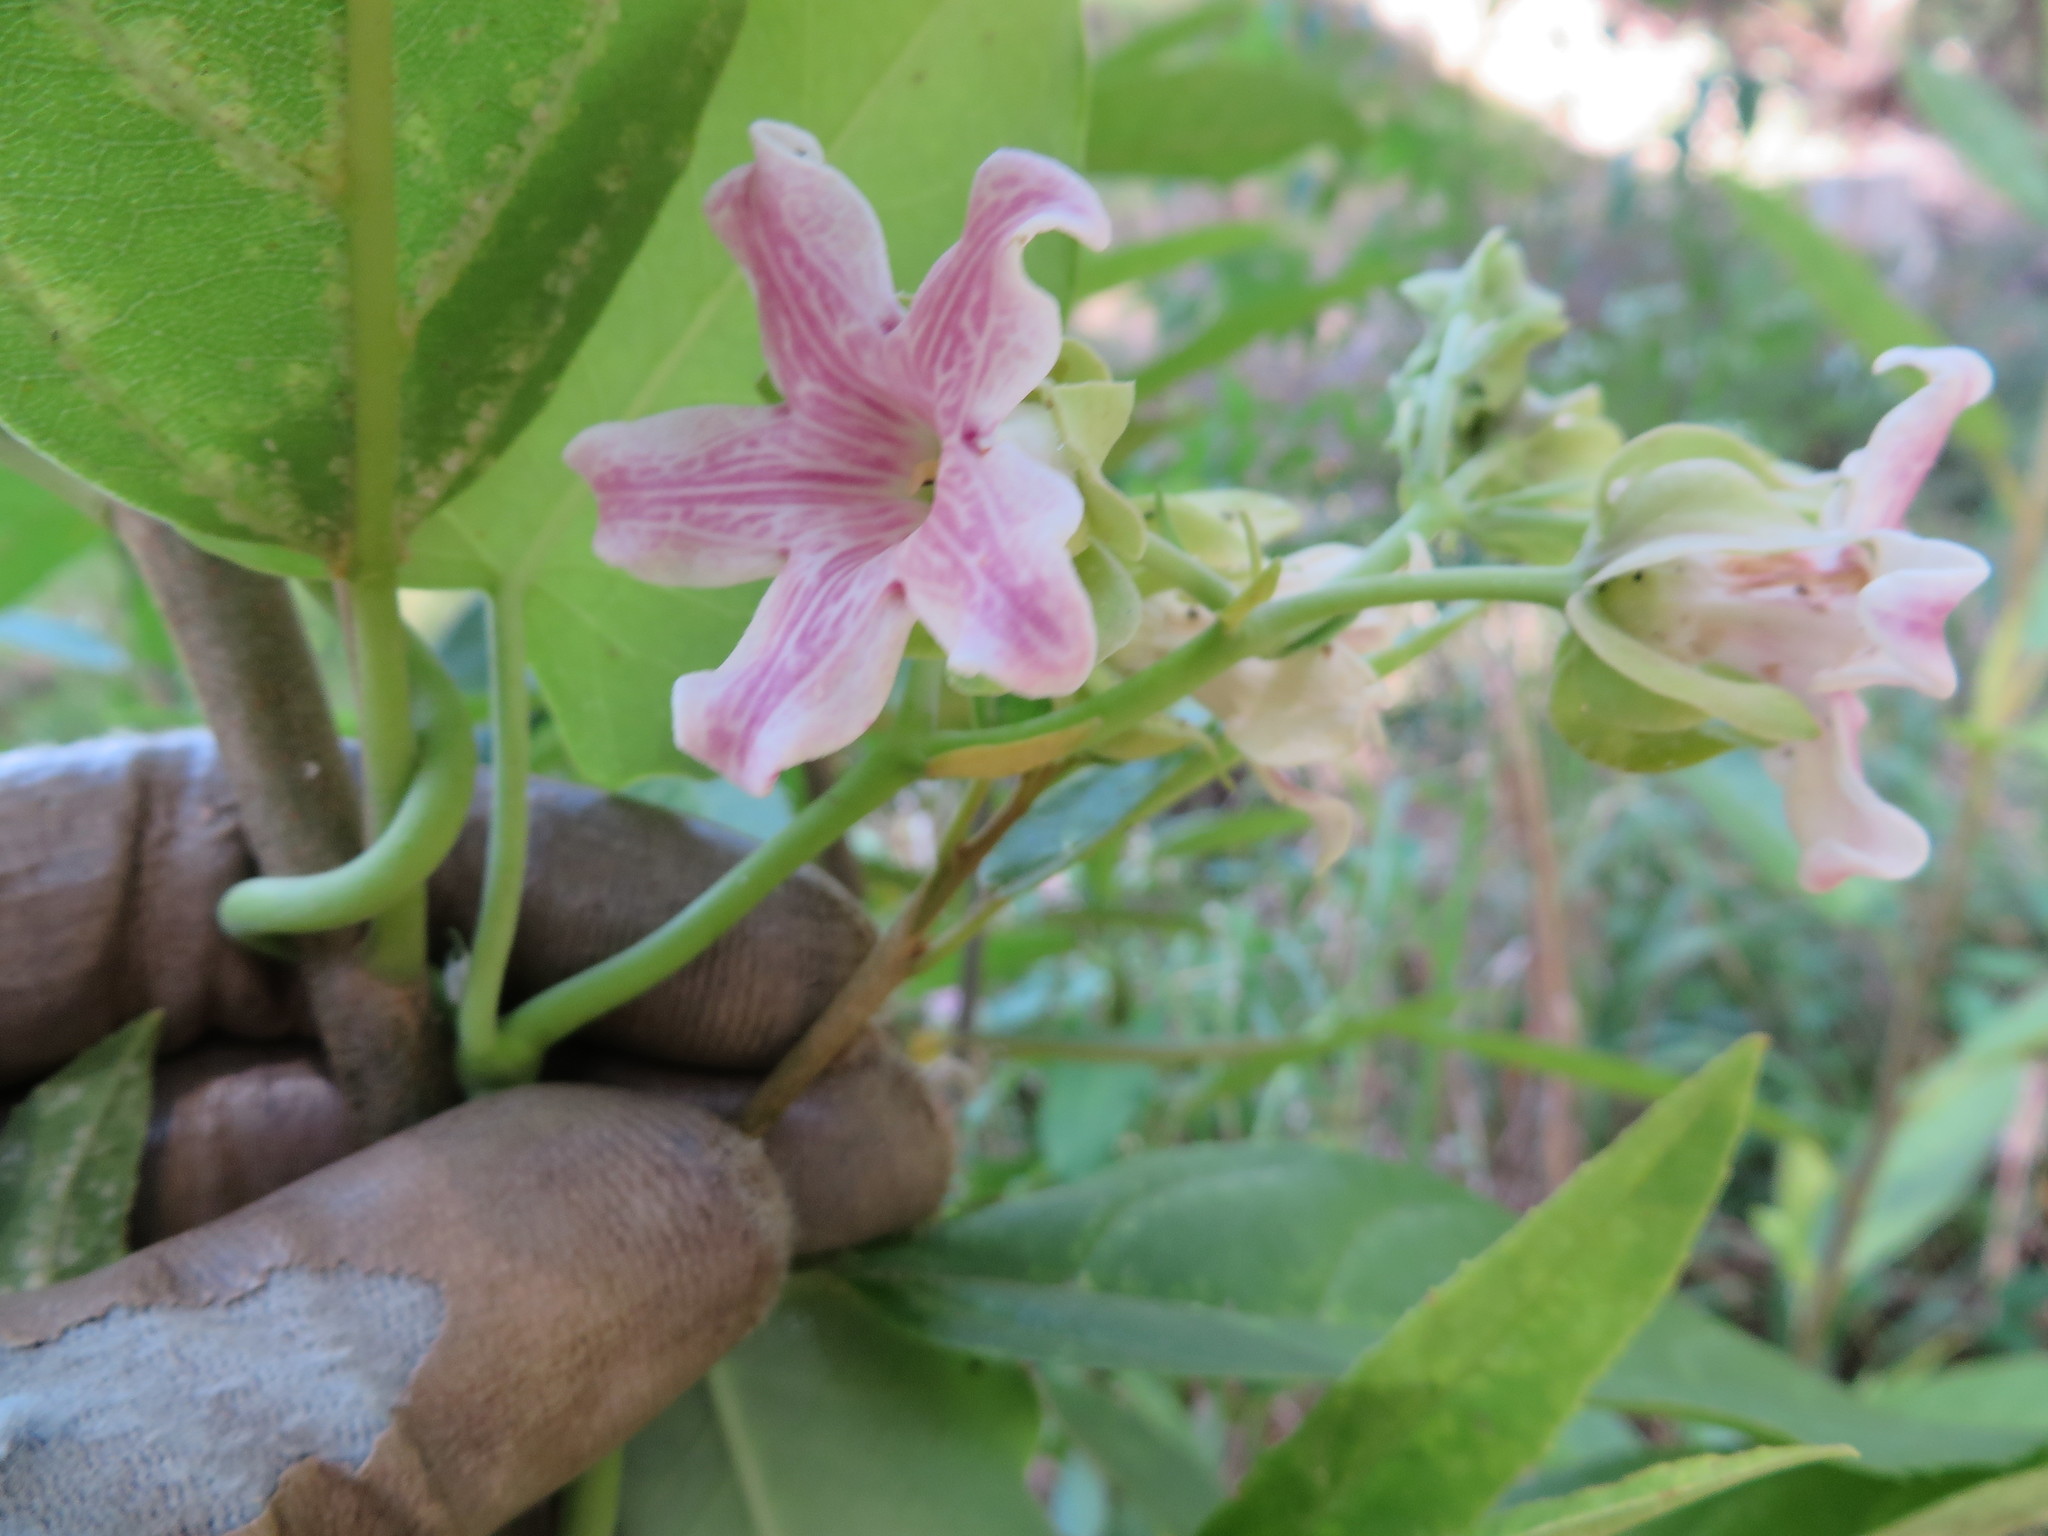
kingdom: Plantae
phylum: Tracheophyta
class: Magnoliopsida
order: Gentianales
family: Apocynaceae
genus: Araujia
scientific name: Araujia sericifera
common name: White bladderflower
